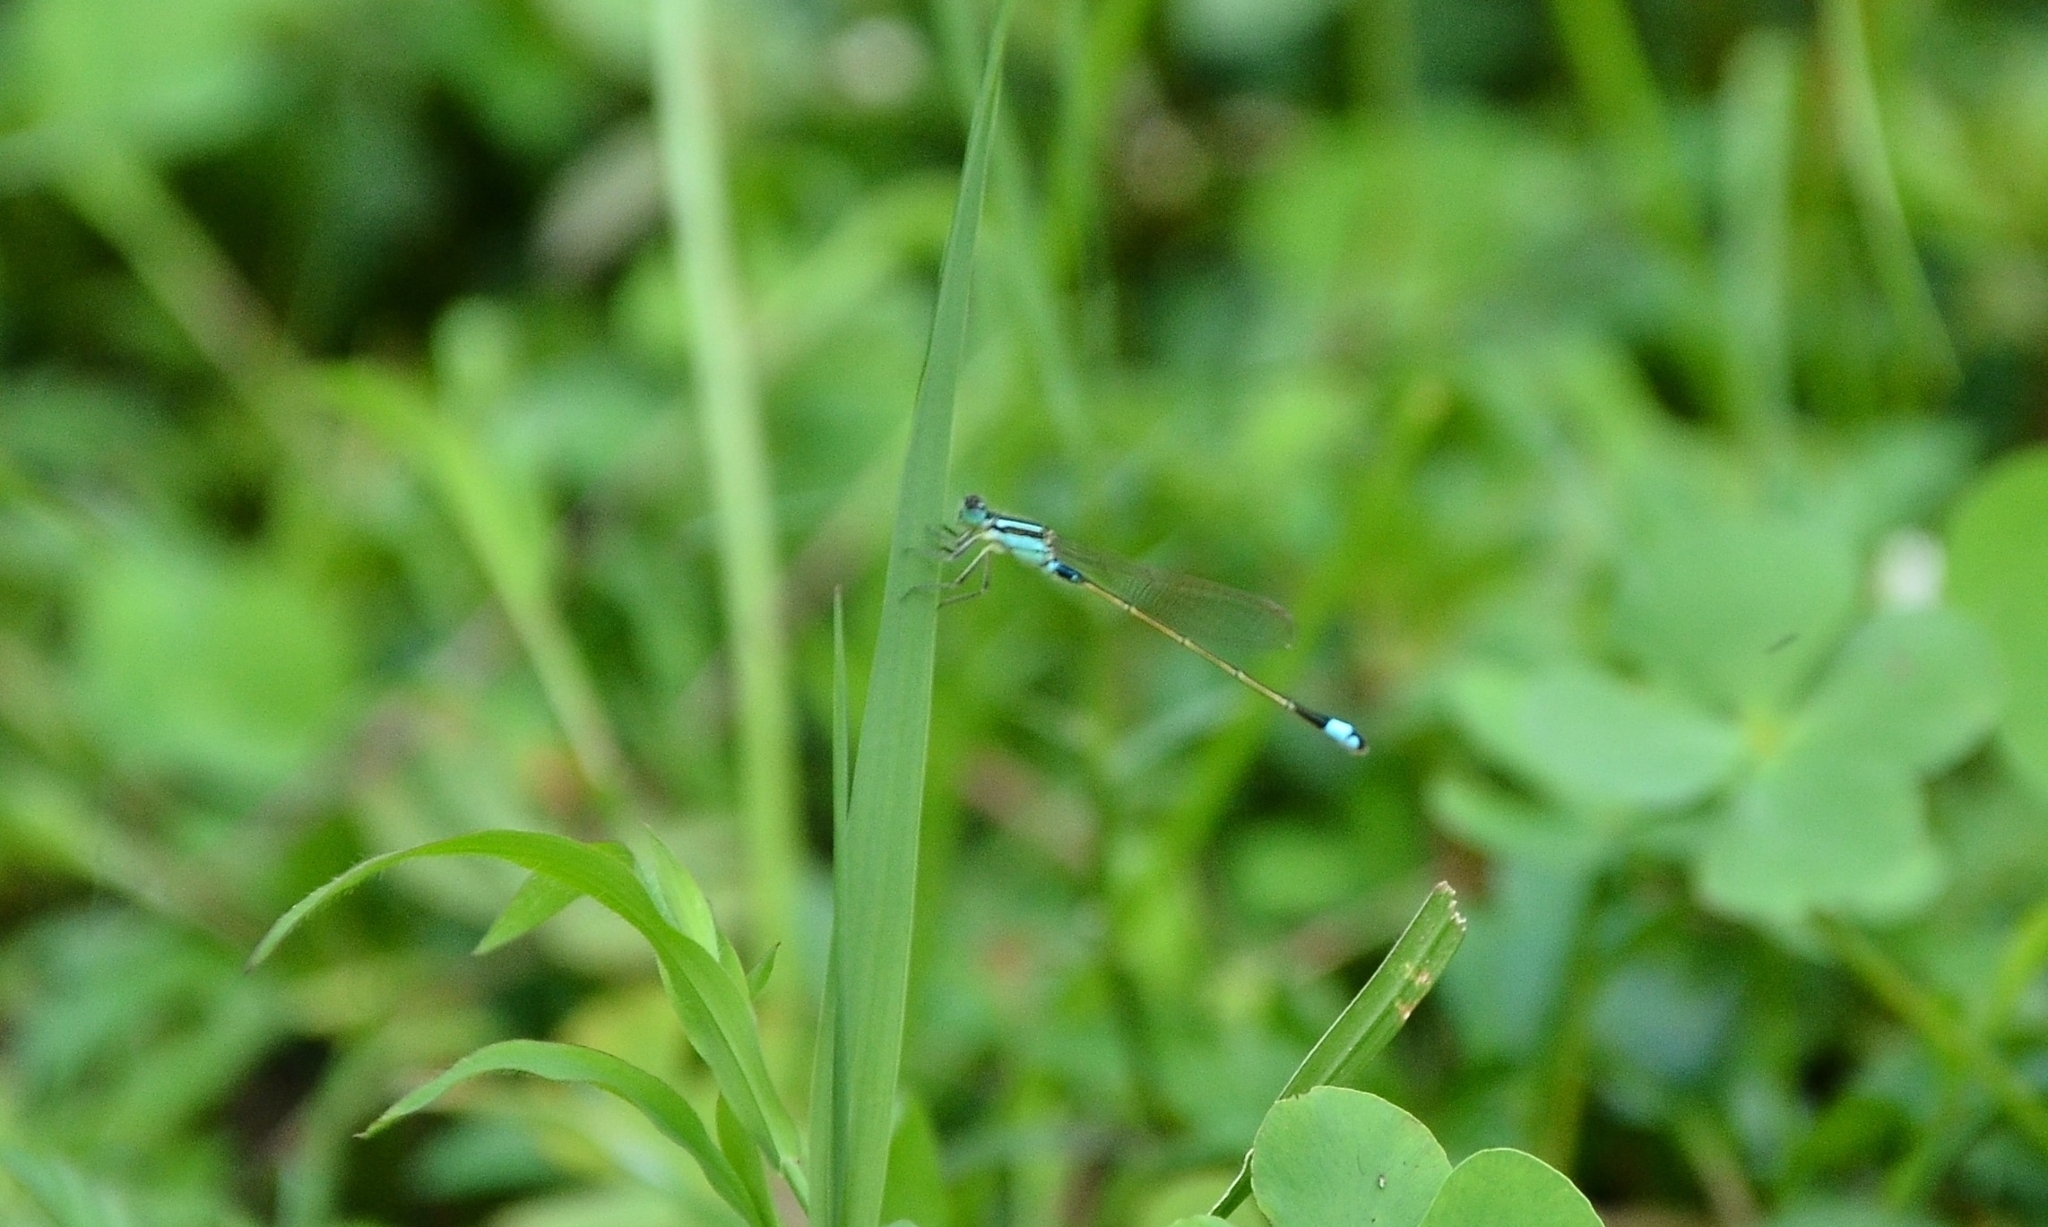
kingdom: Animalia
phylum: Arthropoda
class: Insecta
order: Odonata
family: Coenagrionidae
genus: Ischnura
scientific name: Ischnura senegalensis
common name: Tropical bluetail
